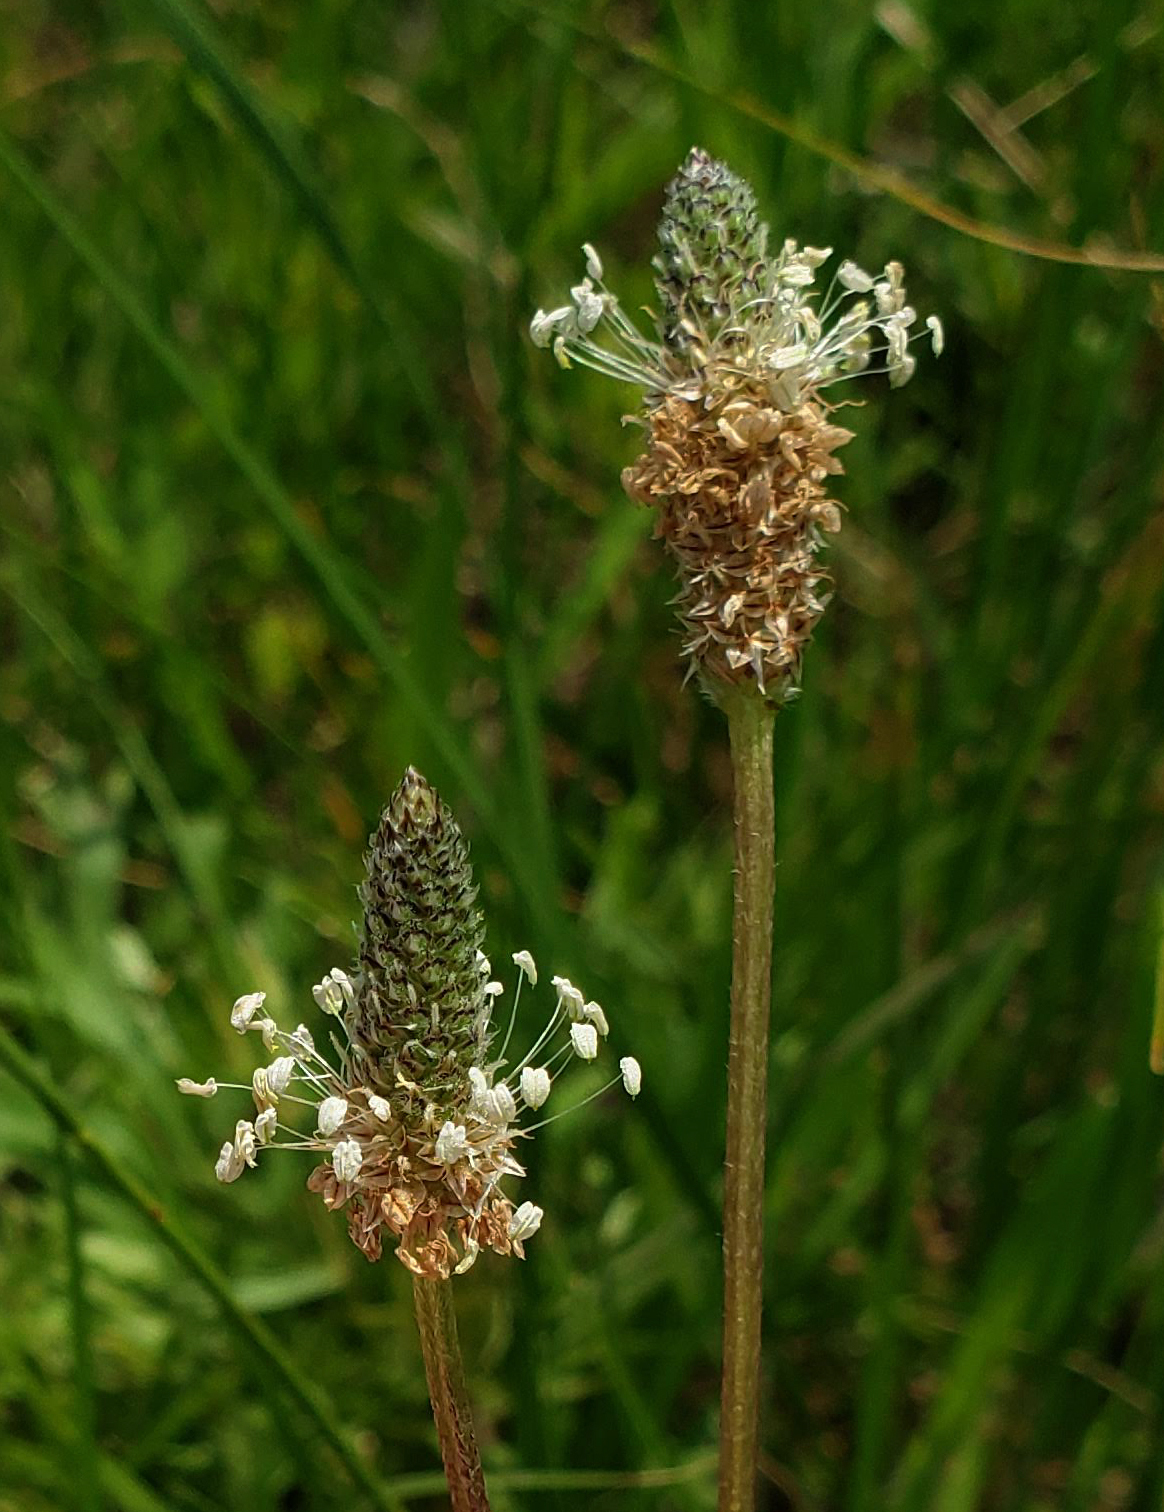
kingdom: Plantae
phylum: Tracheophyta
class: Magnoliopsida
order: Lamiales
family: Plantaginaceae
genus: Plantago
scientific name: Plantago lanceolata
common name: Ribwort plantain
